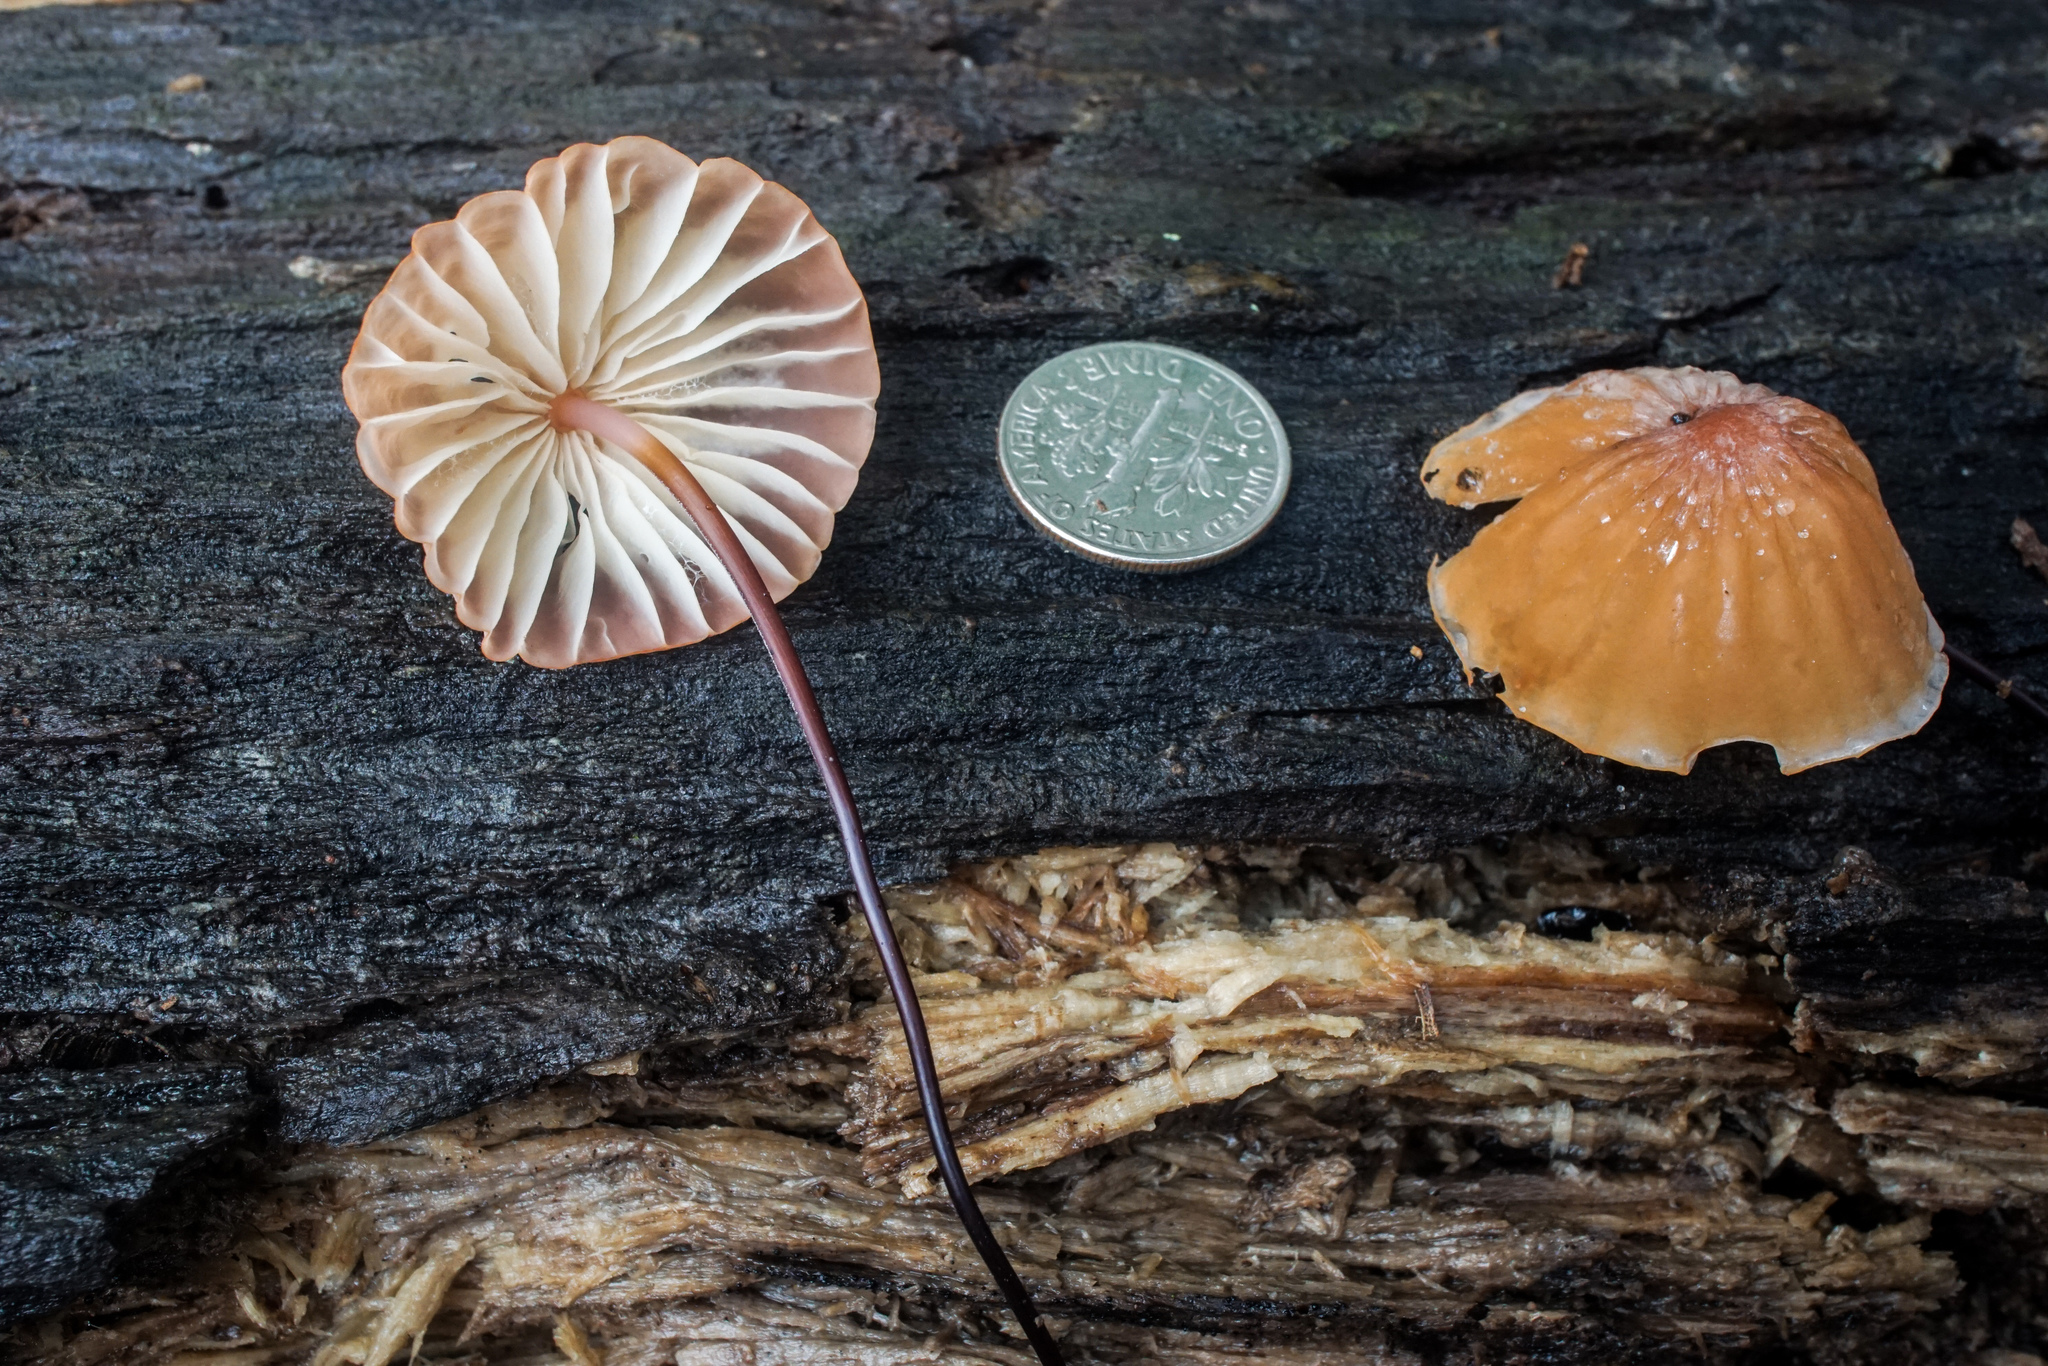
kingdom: Fungi
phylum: Basidiomycota
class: Agaricomycetes
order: Agaricales
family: Marasmiaceae
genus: Marasmius
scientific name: Marasmius fulvoferrugineus
